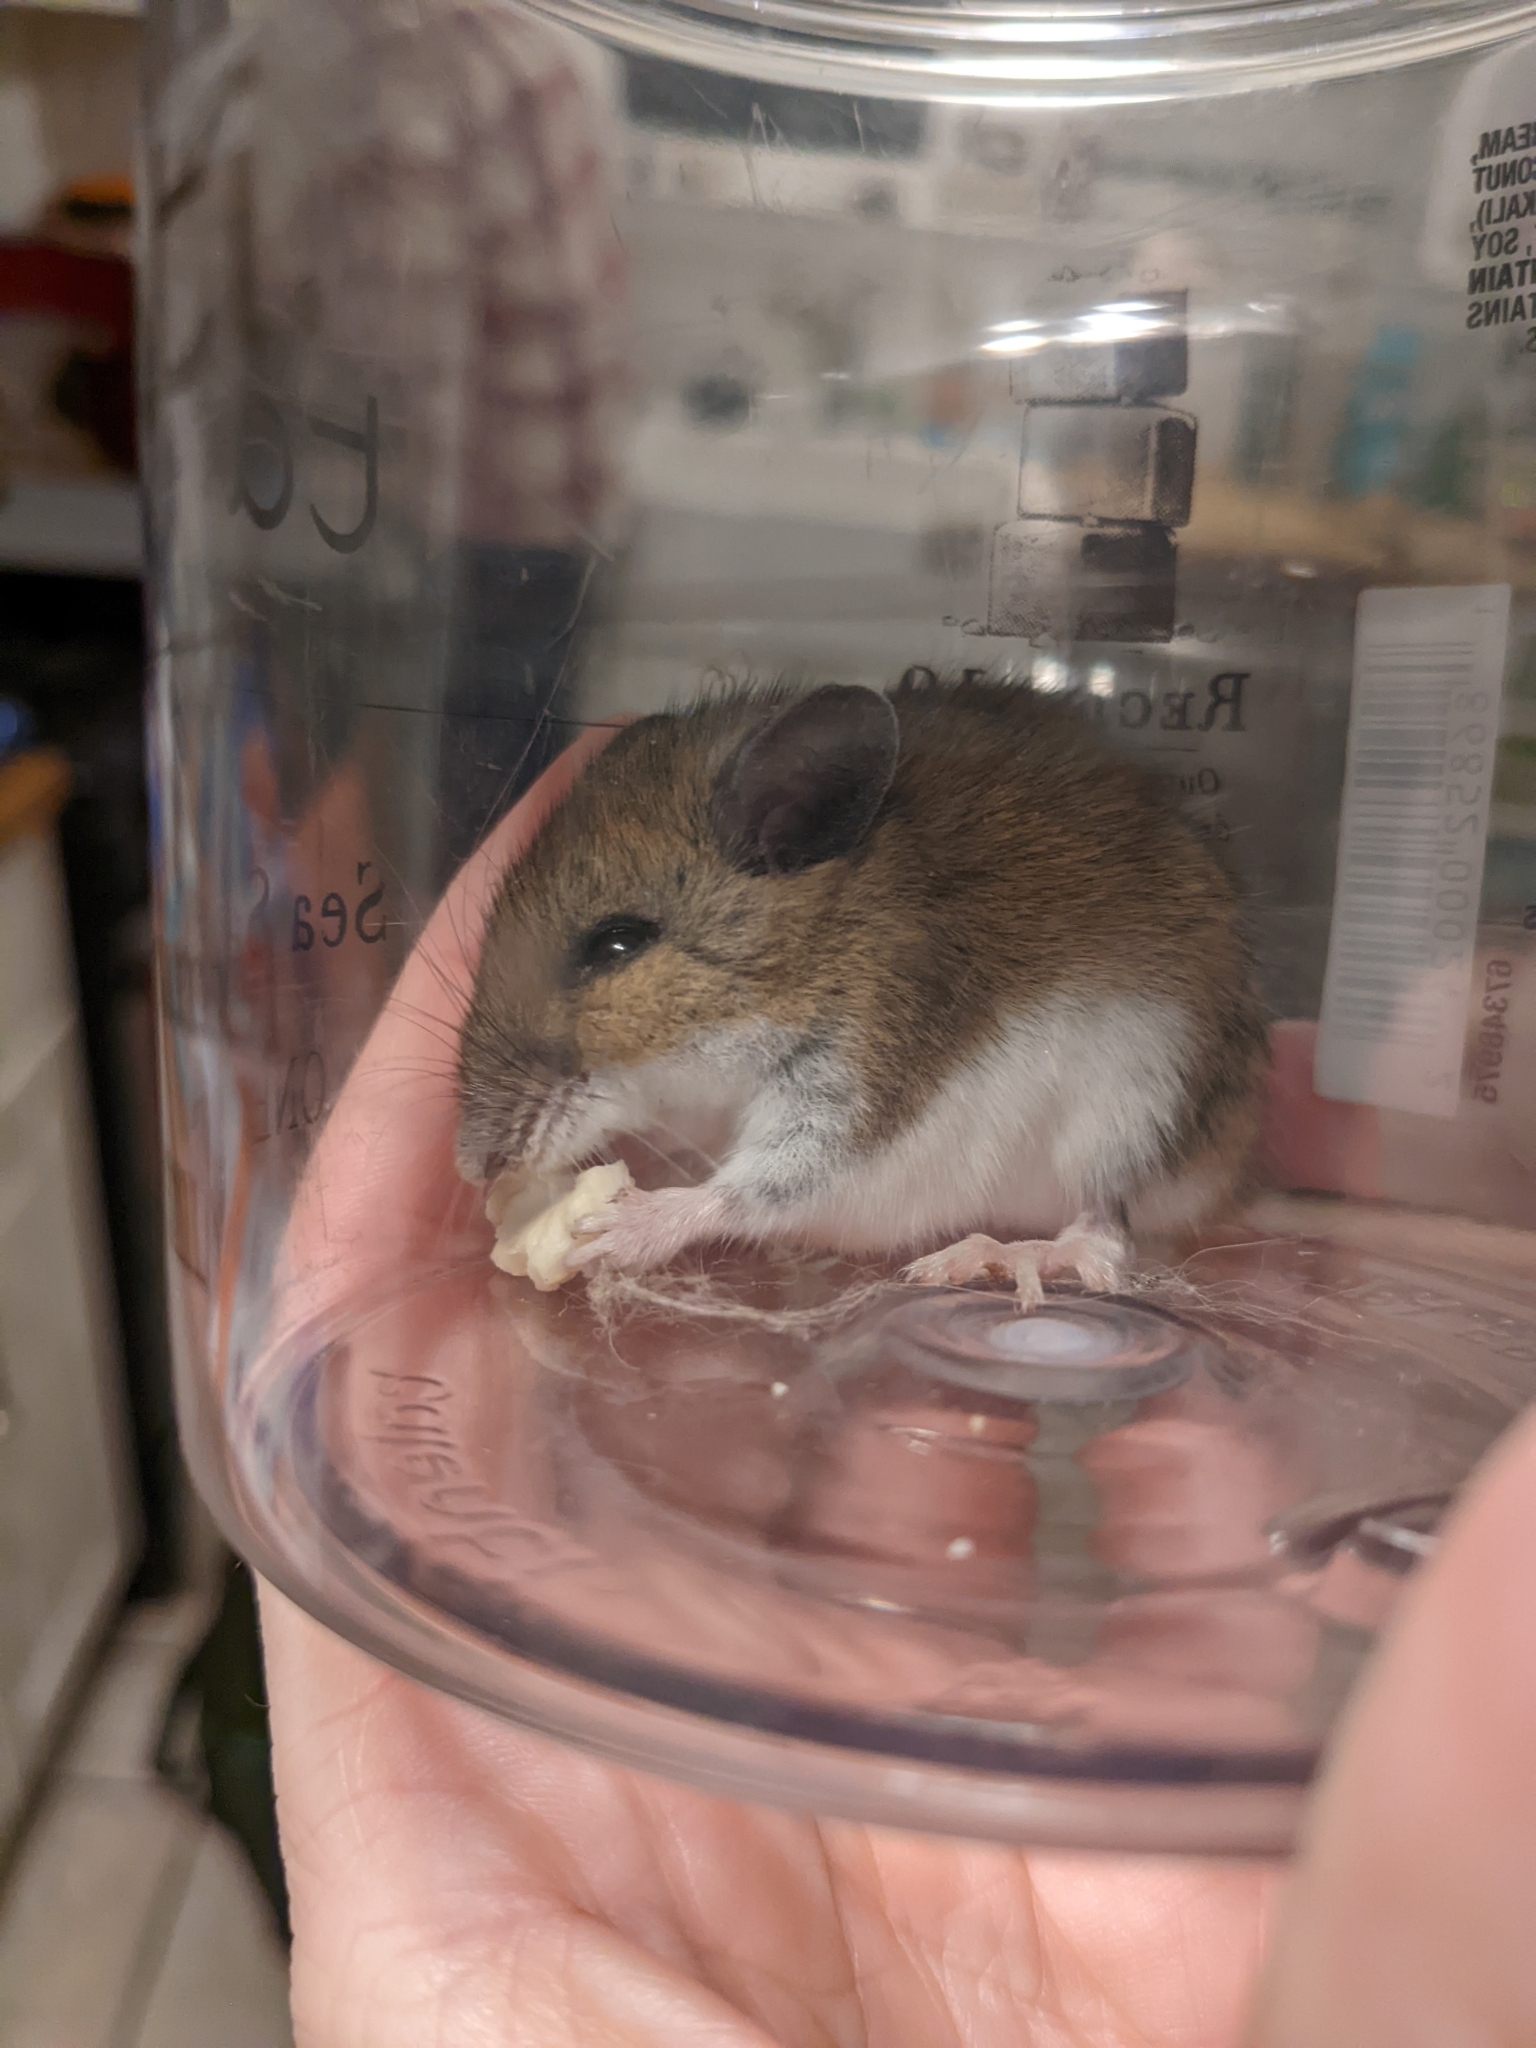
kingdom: Animalia
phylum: Chordata
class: Mammalia
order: Rodentia
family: Cricetidae
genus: Peromyscus
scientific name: Peromyscus leucopus
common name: White-footed deermouse
